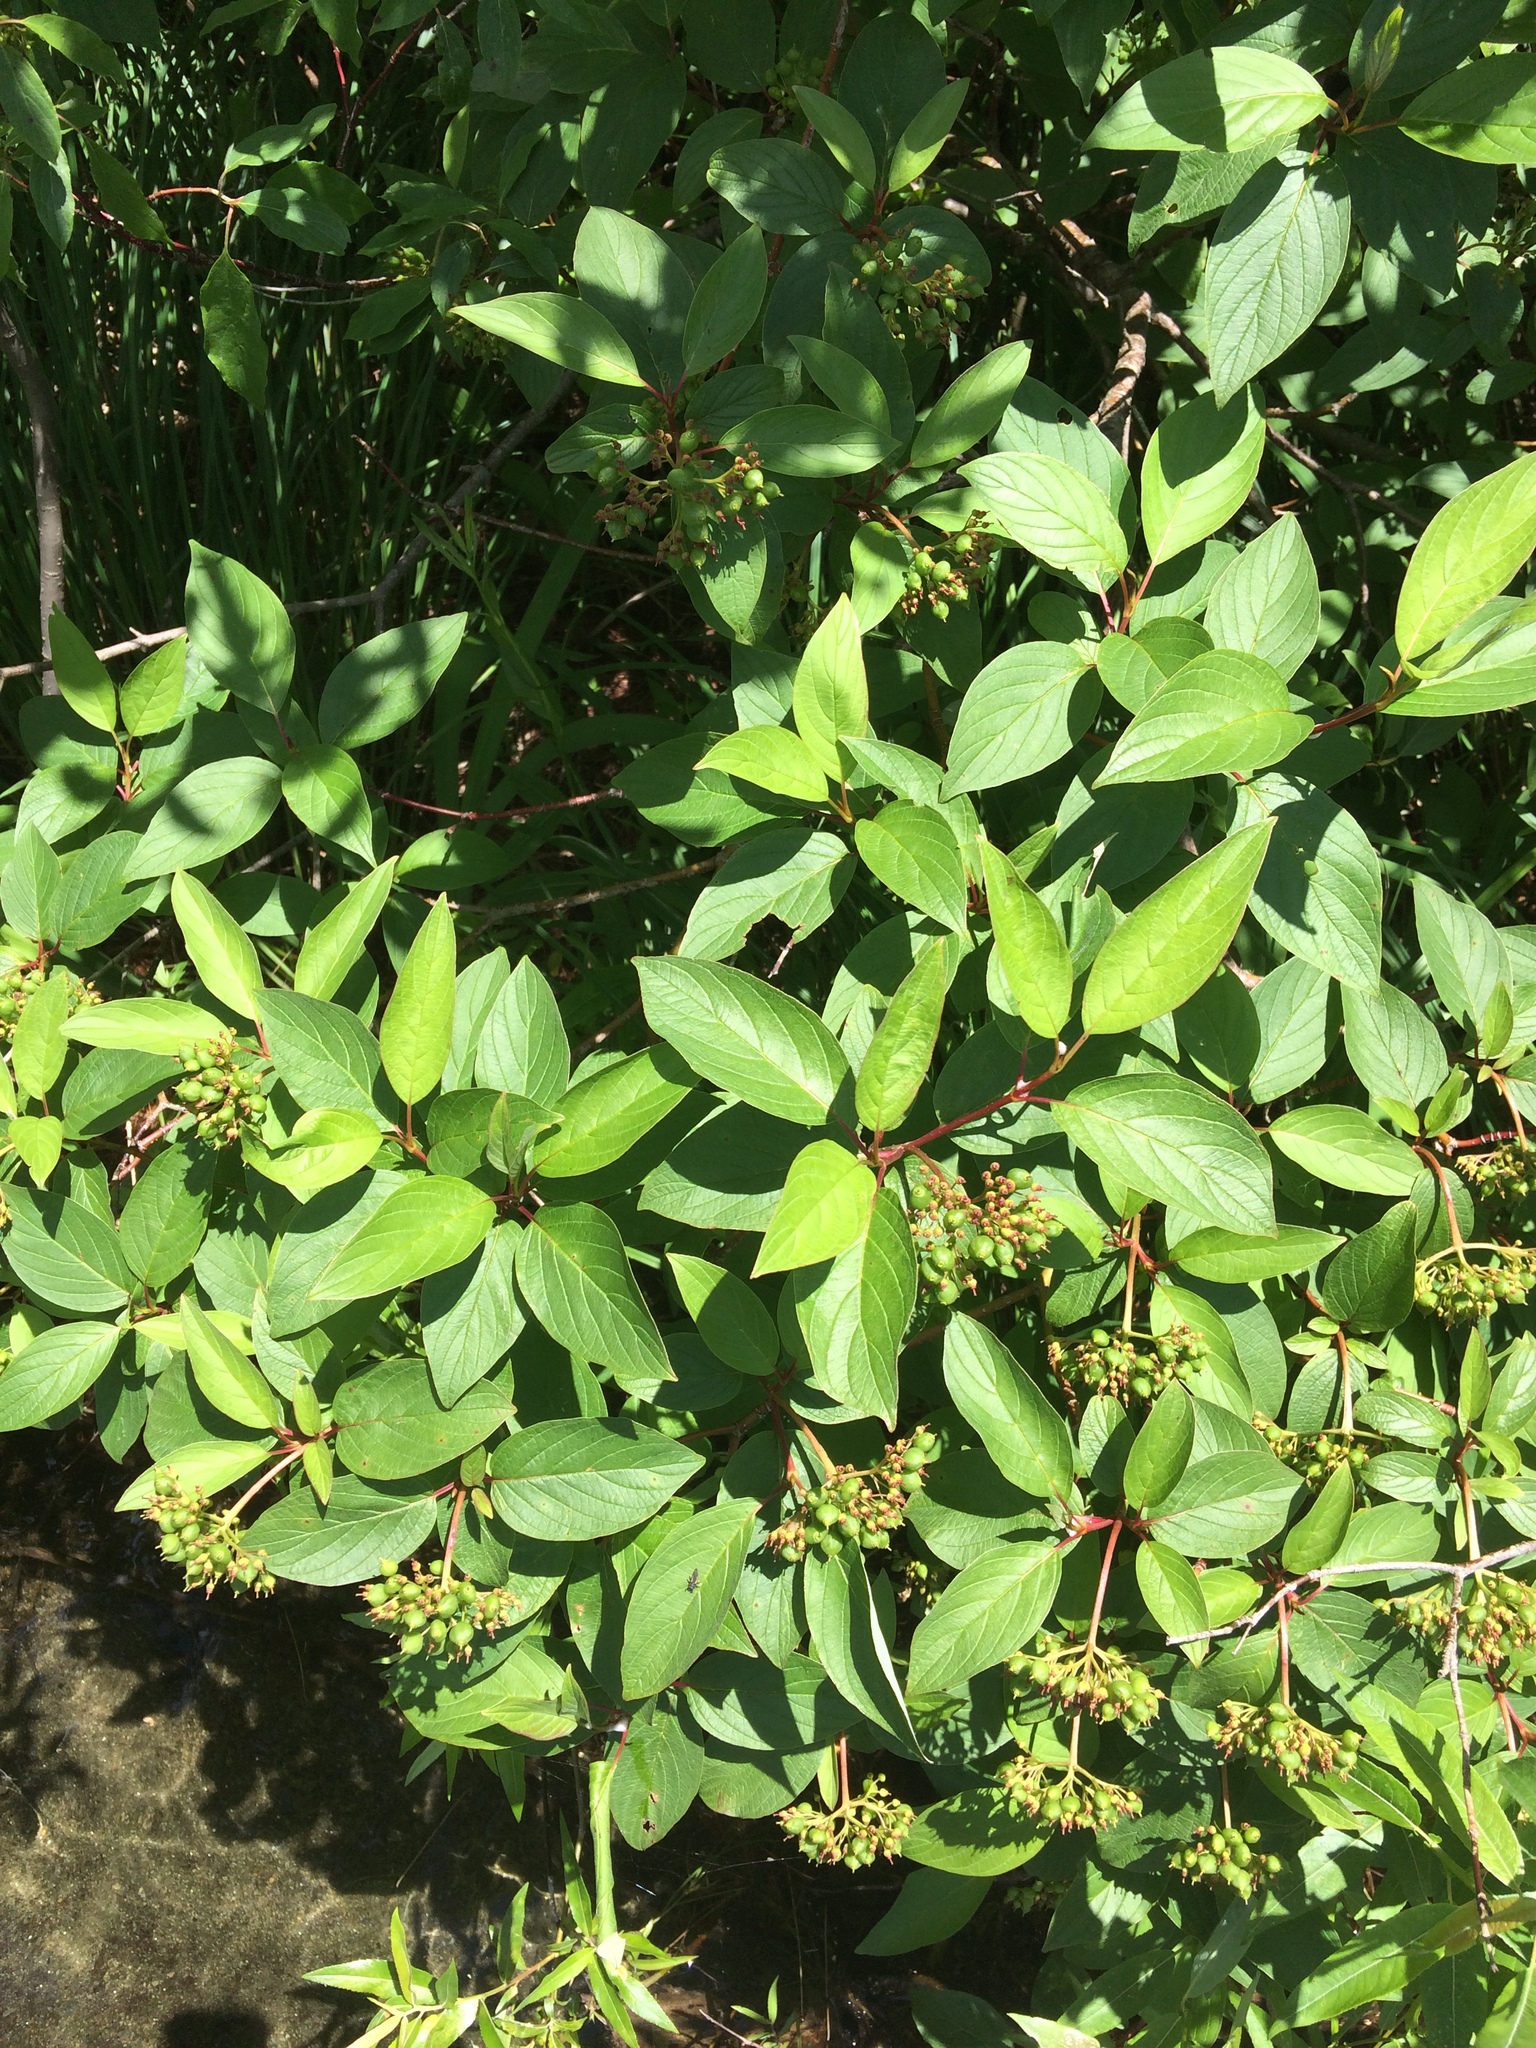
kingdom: Plantae
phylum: Tracheophyta
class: Magnoliopsida
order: Cornales
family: Cornaceae
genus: Cornus
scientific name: Cornus sericea
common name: Red-osier dogwood
